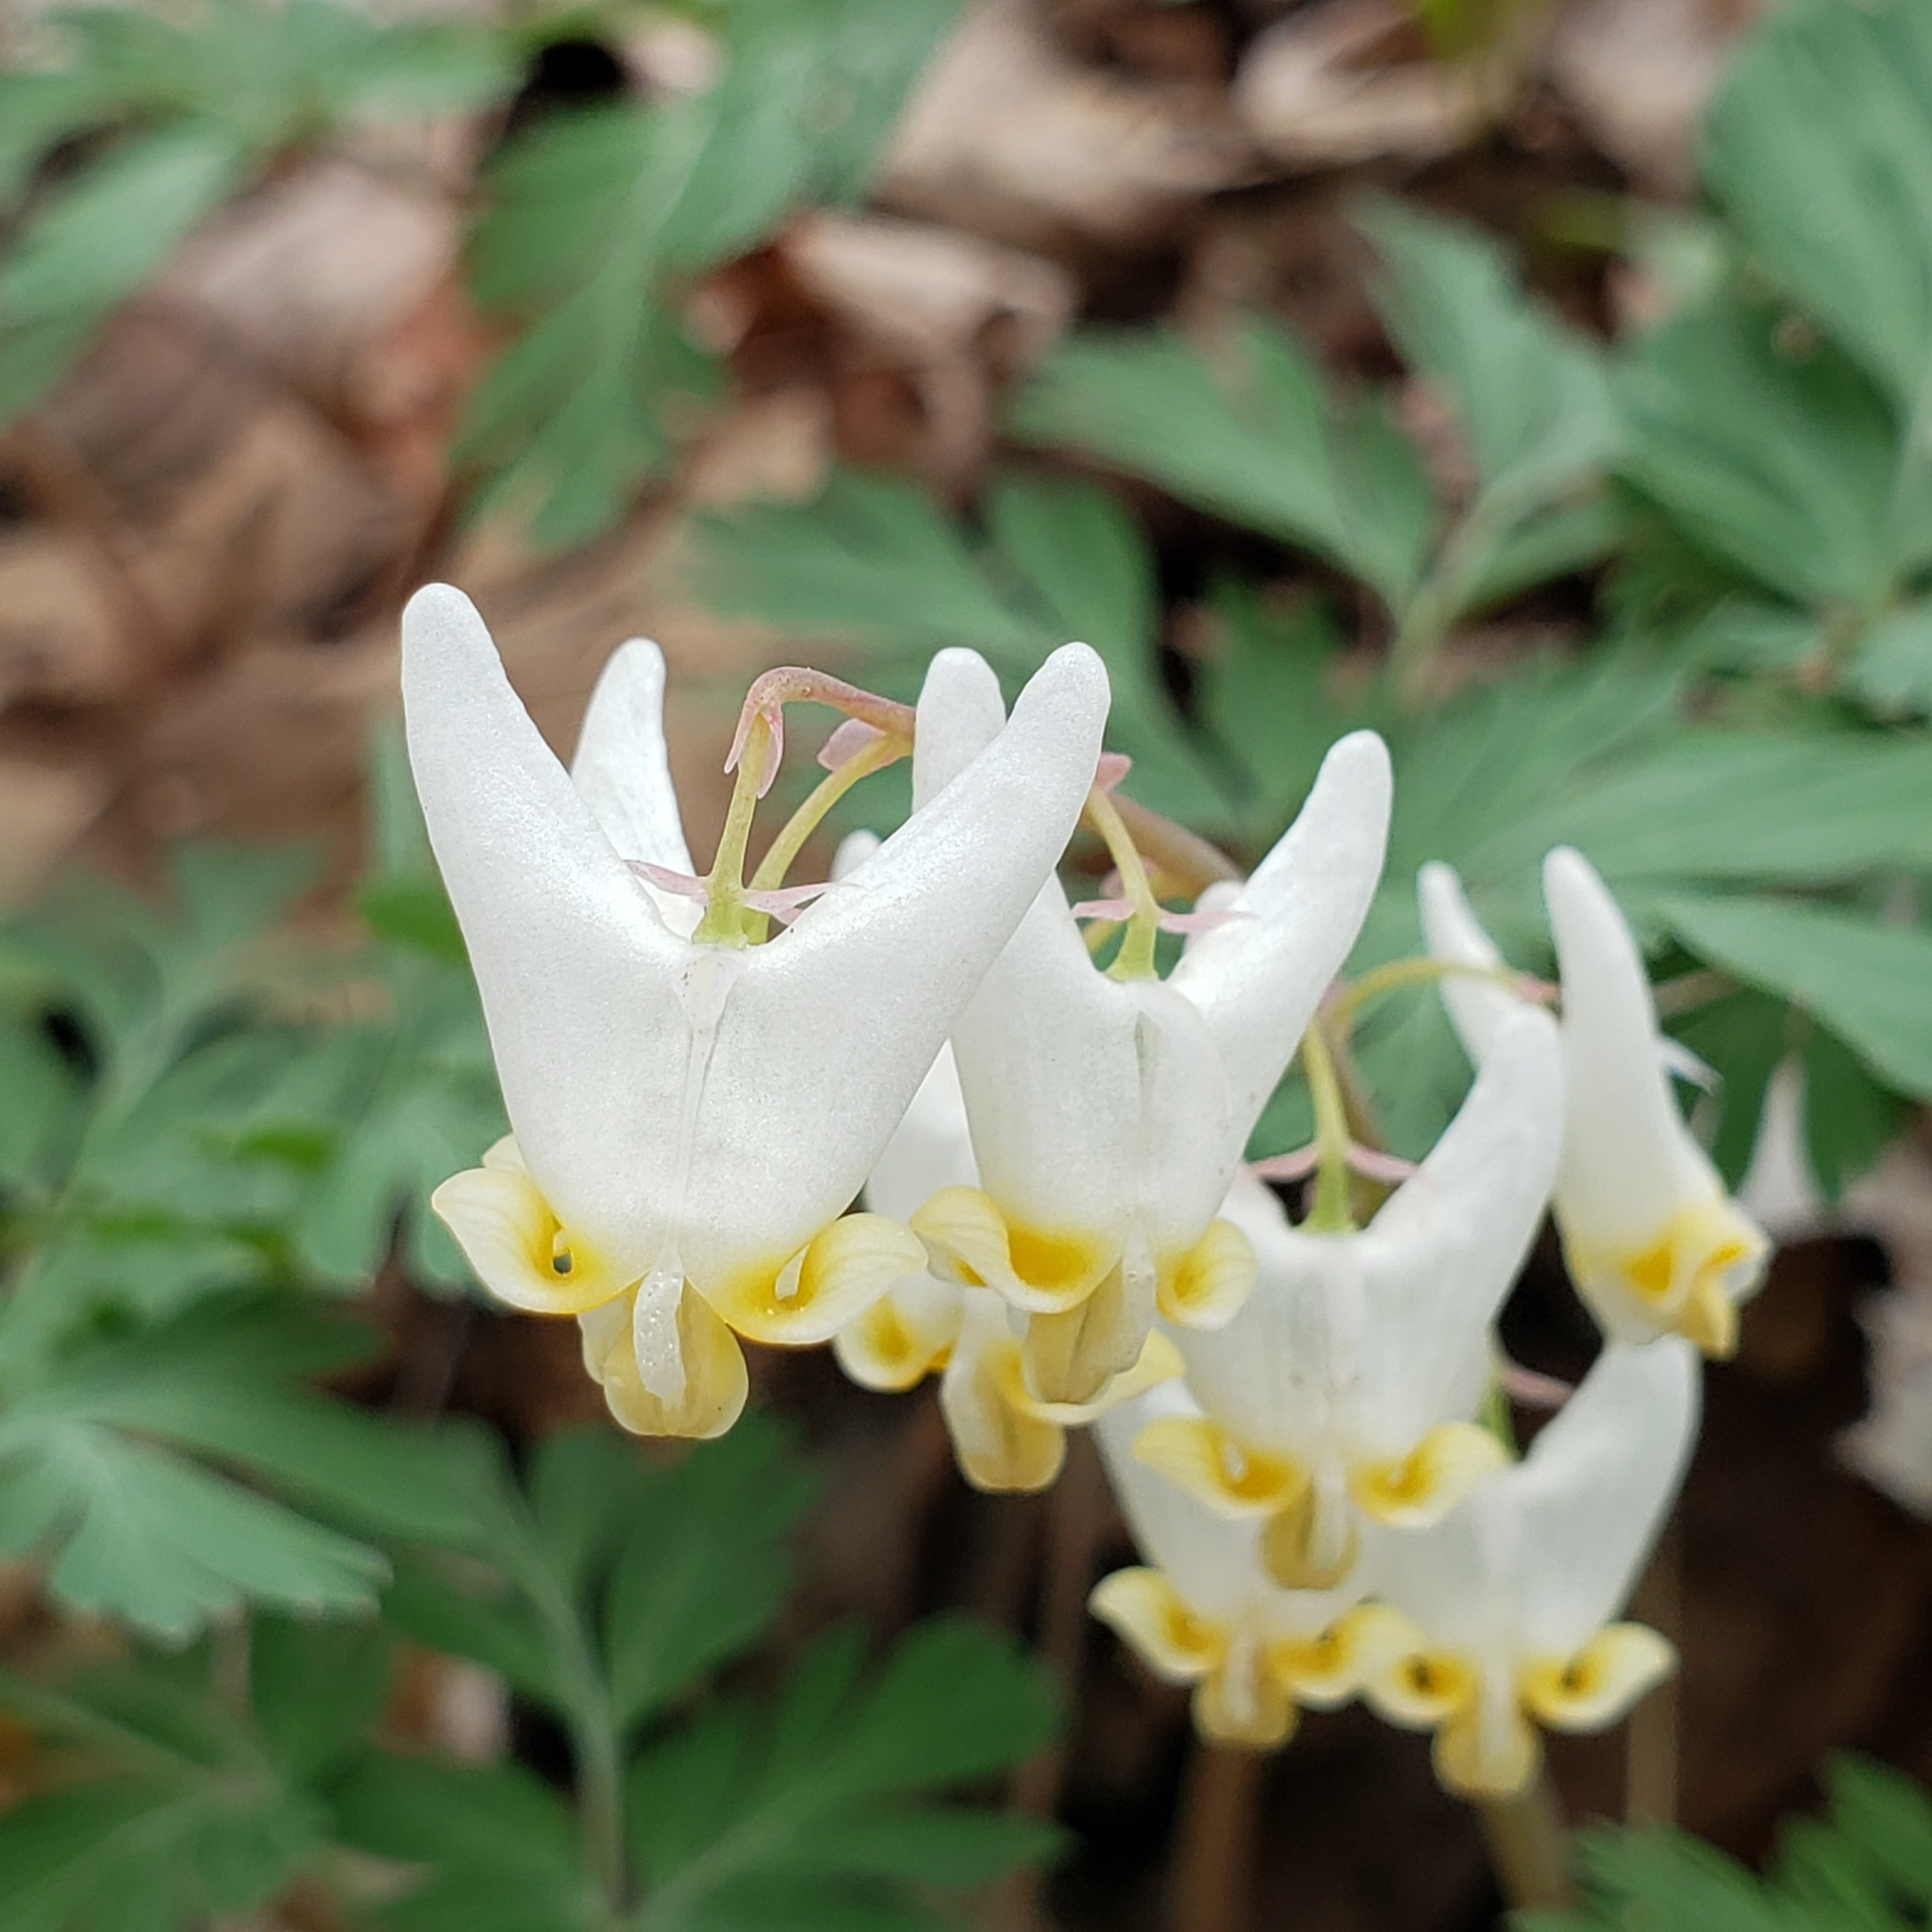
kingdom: Plantae
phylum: Tracheophyta
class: Magnoliopsida
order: Ranunculales
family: Papaveraceae
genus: Dicentra
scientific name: Dicentra cucullaria
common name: Dutchman's breeches
